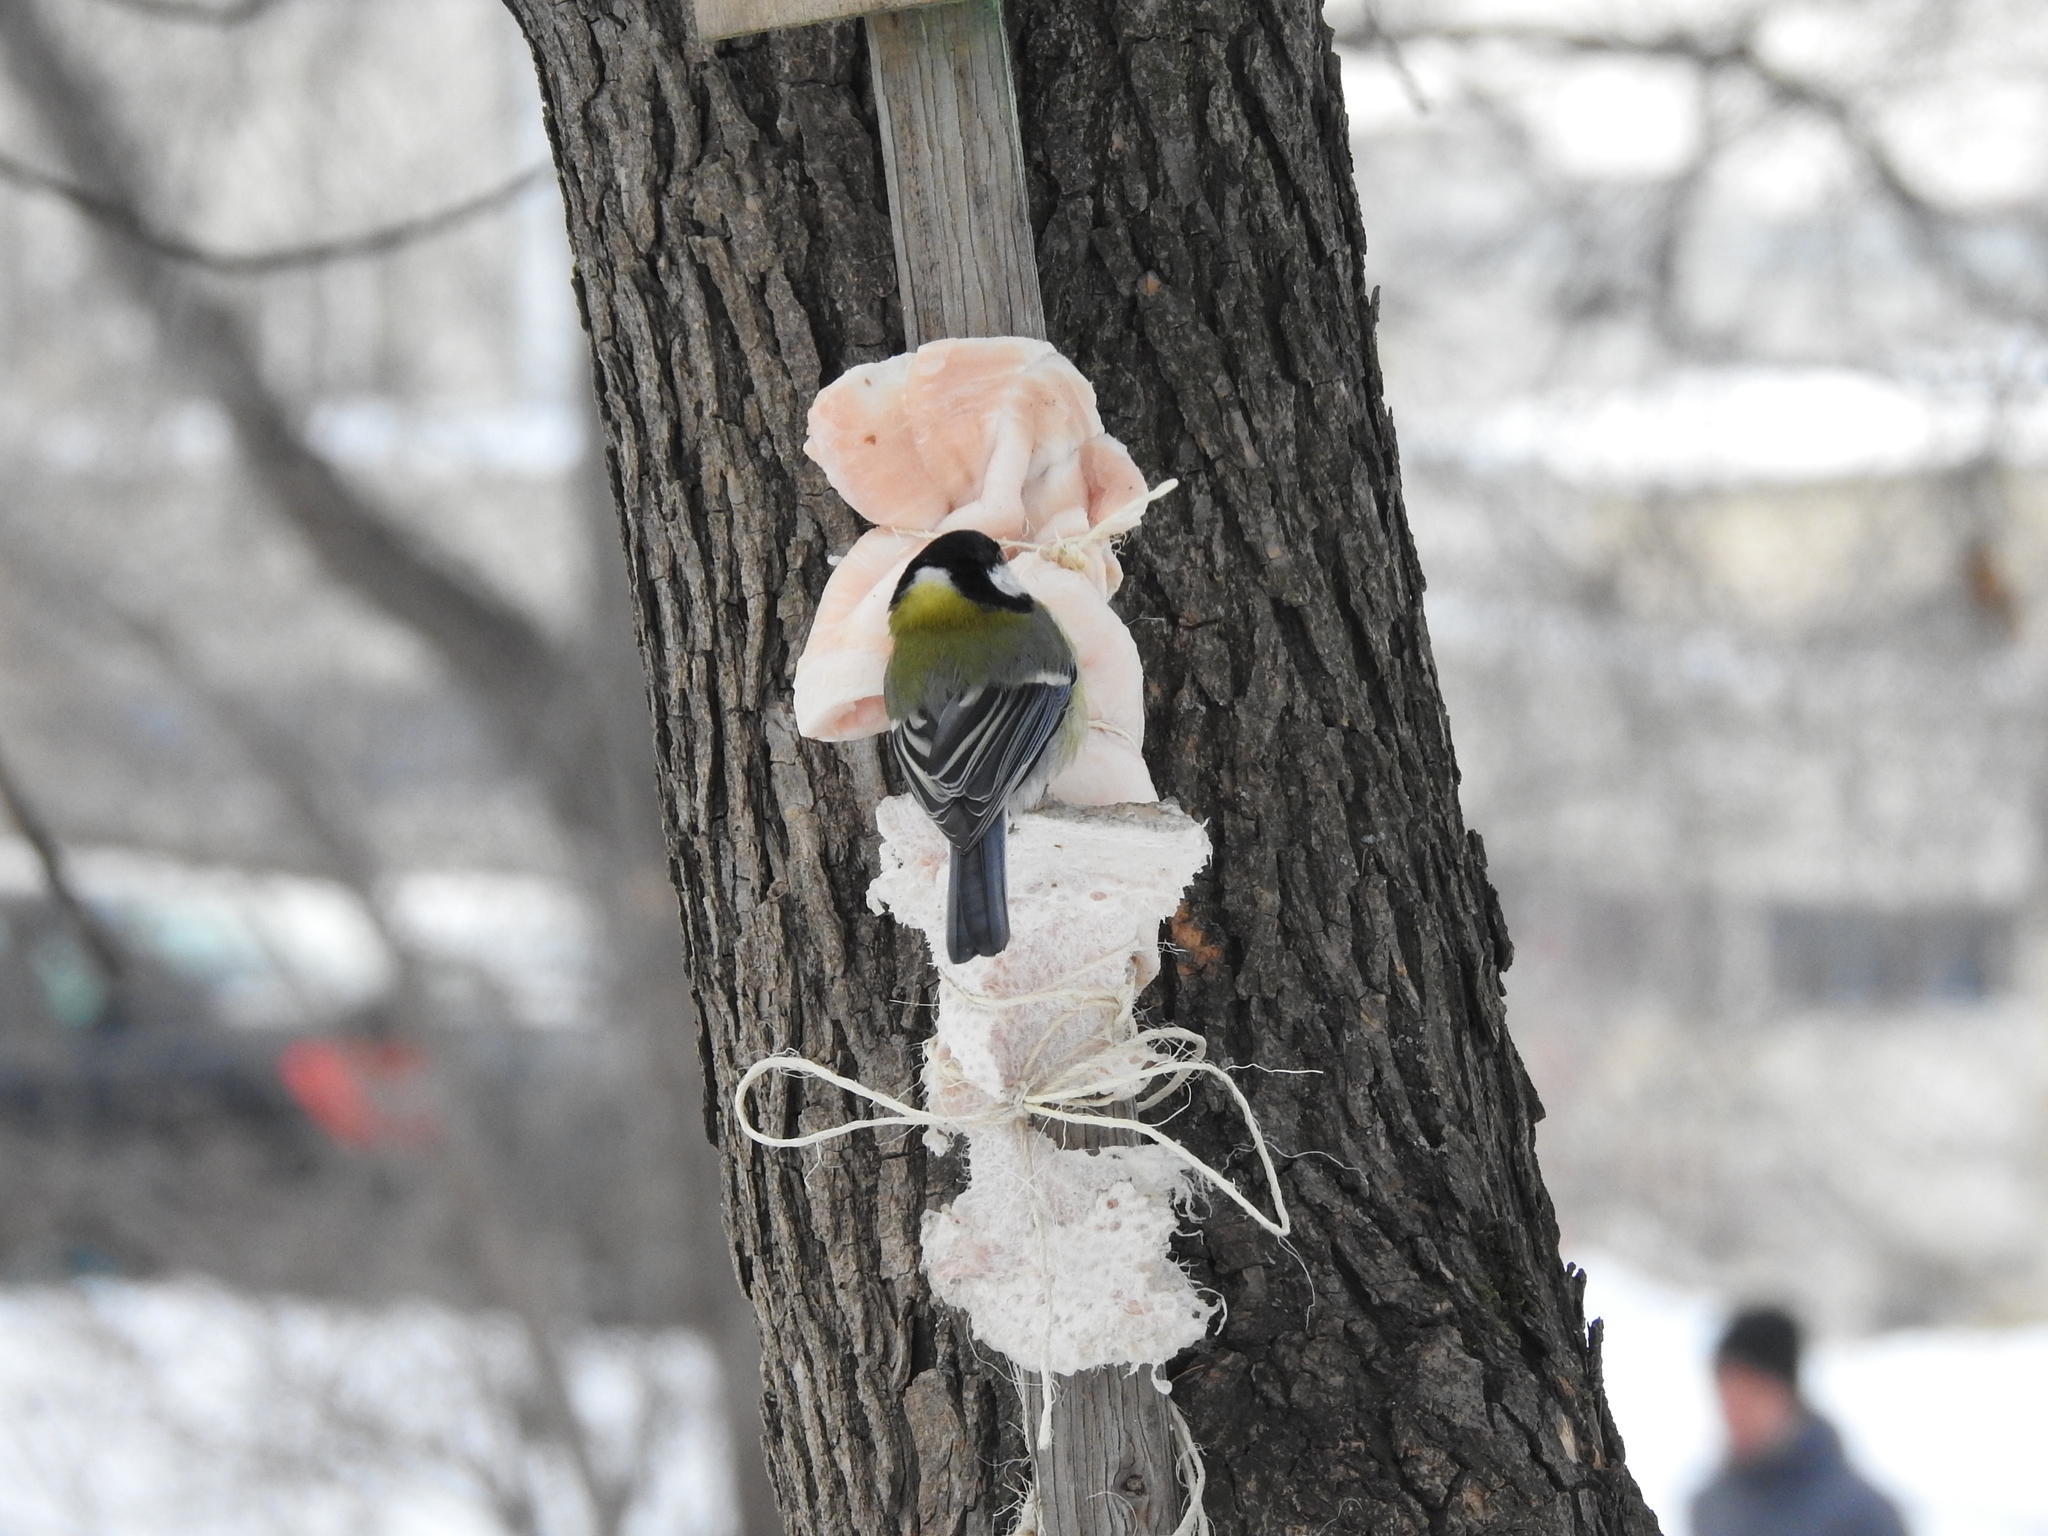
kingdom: Animalia
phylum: Chordata
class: Aves
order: Passeriformes
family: Paridae
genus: Parus
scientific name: Parus major
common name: Great tit
